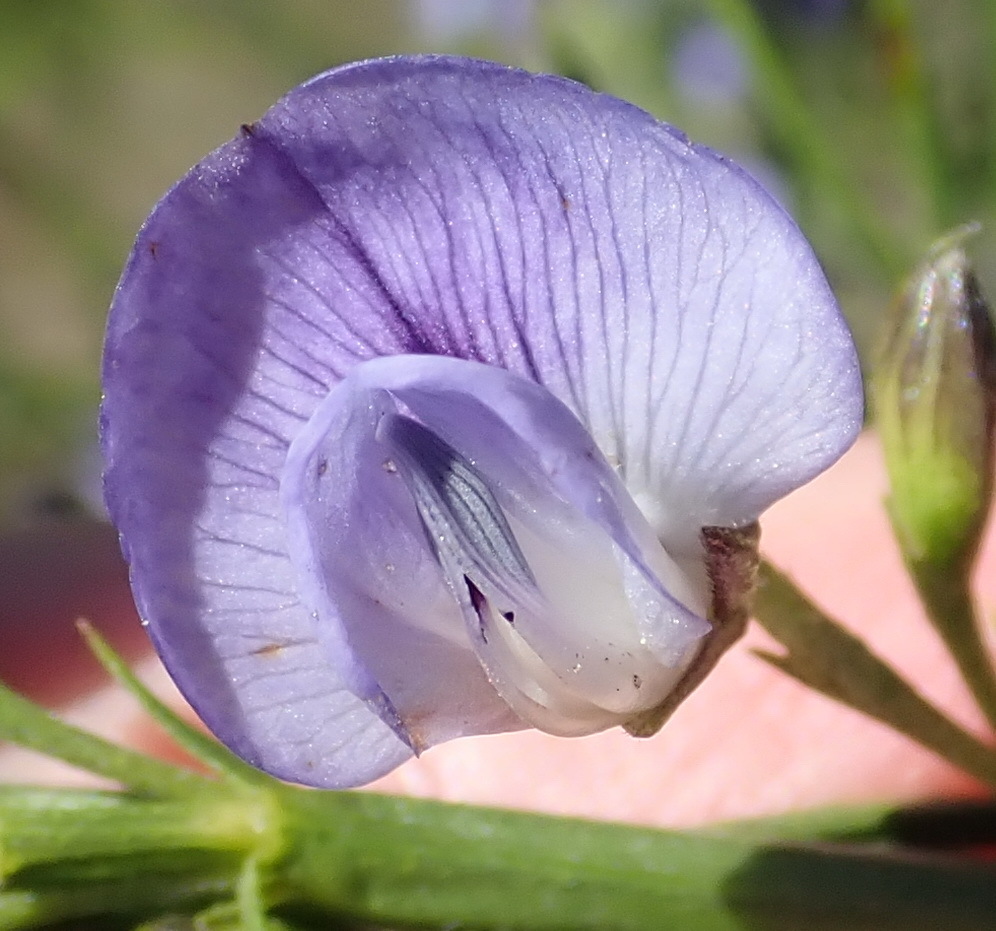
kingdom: Plantae
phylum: Tracheophyta
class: Magnoliopsida
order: Fabales
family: Fabaceae
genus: Psoralea
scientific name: Psoralea diturnerae
